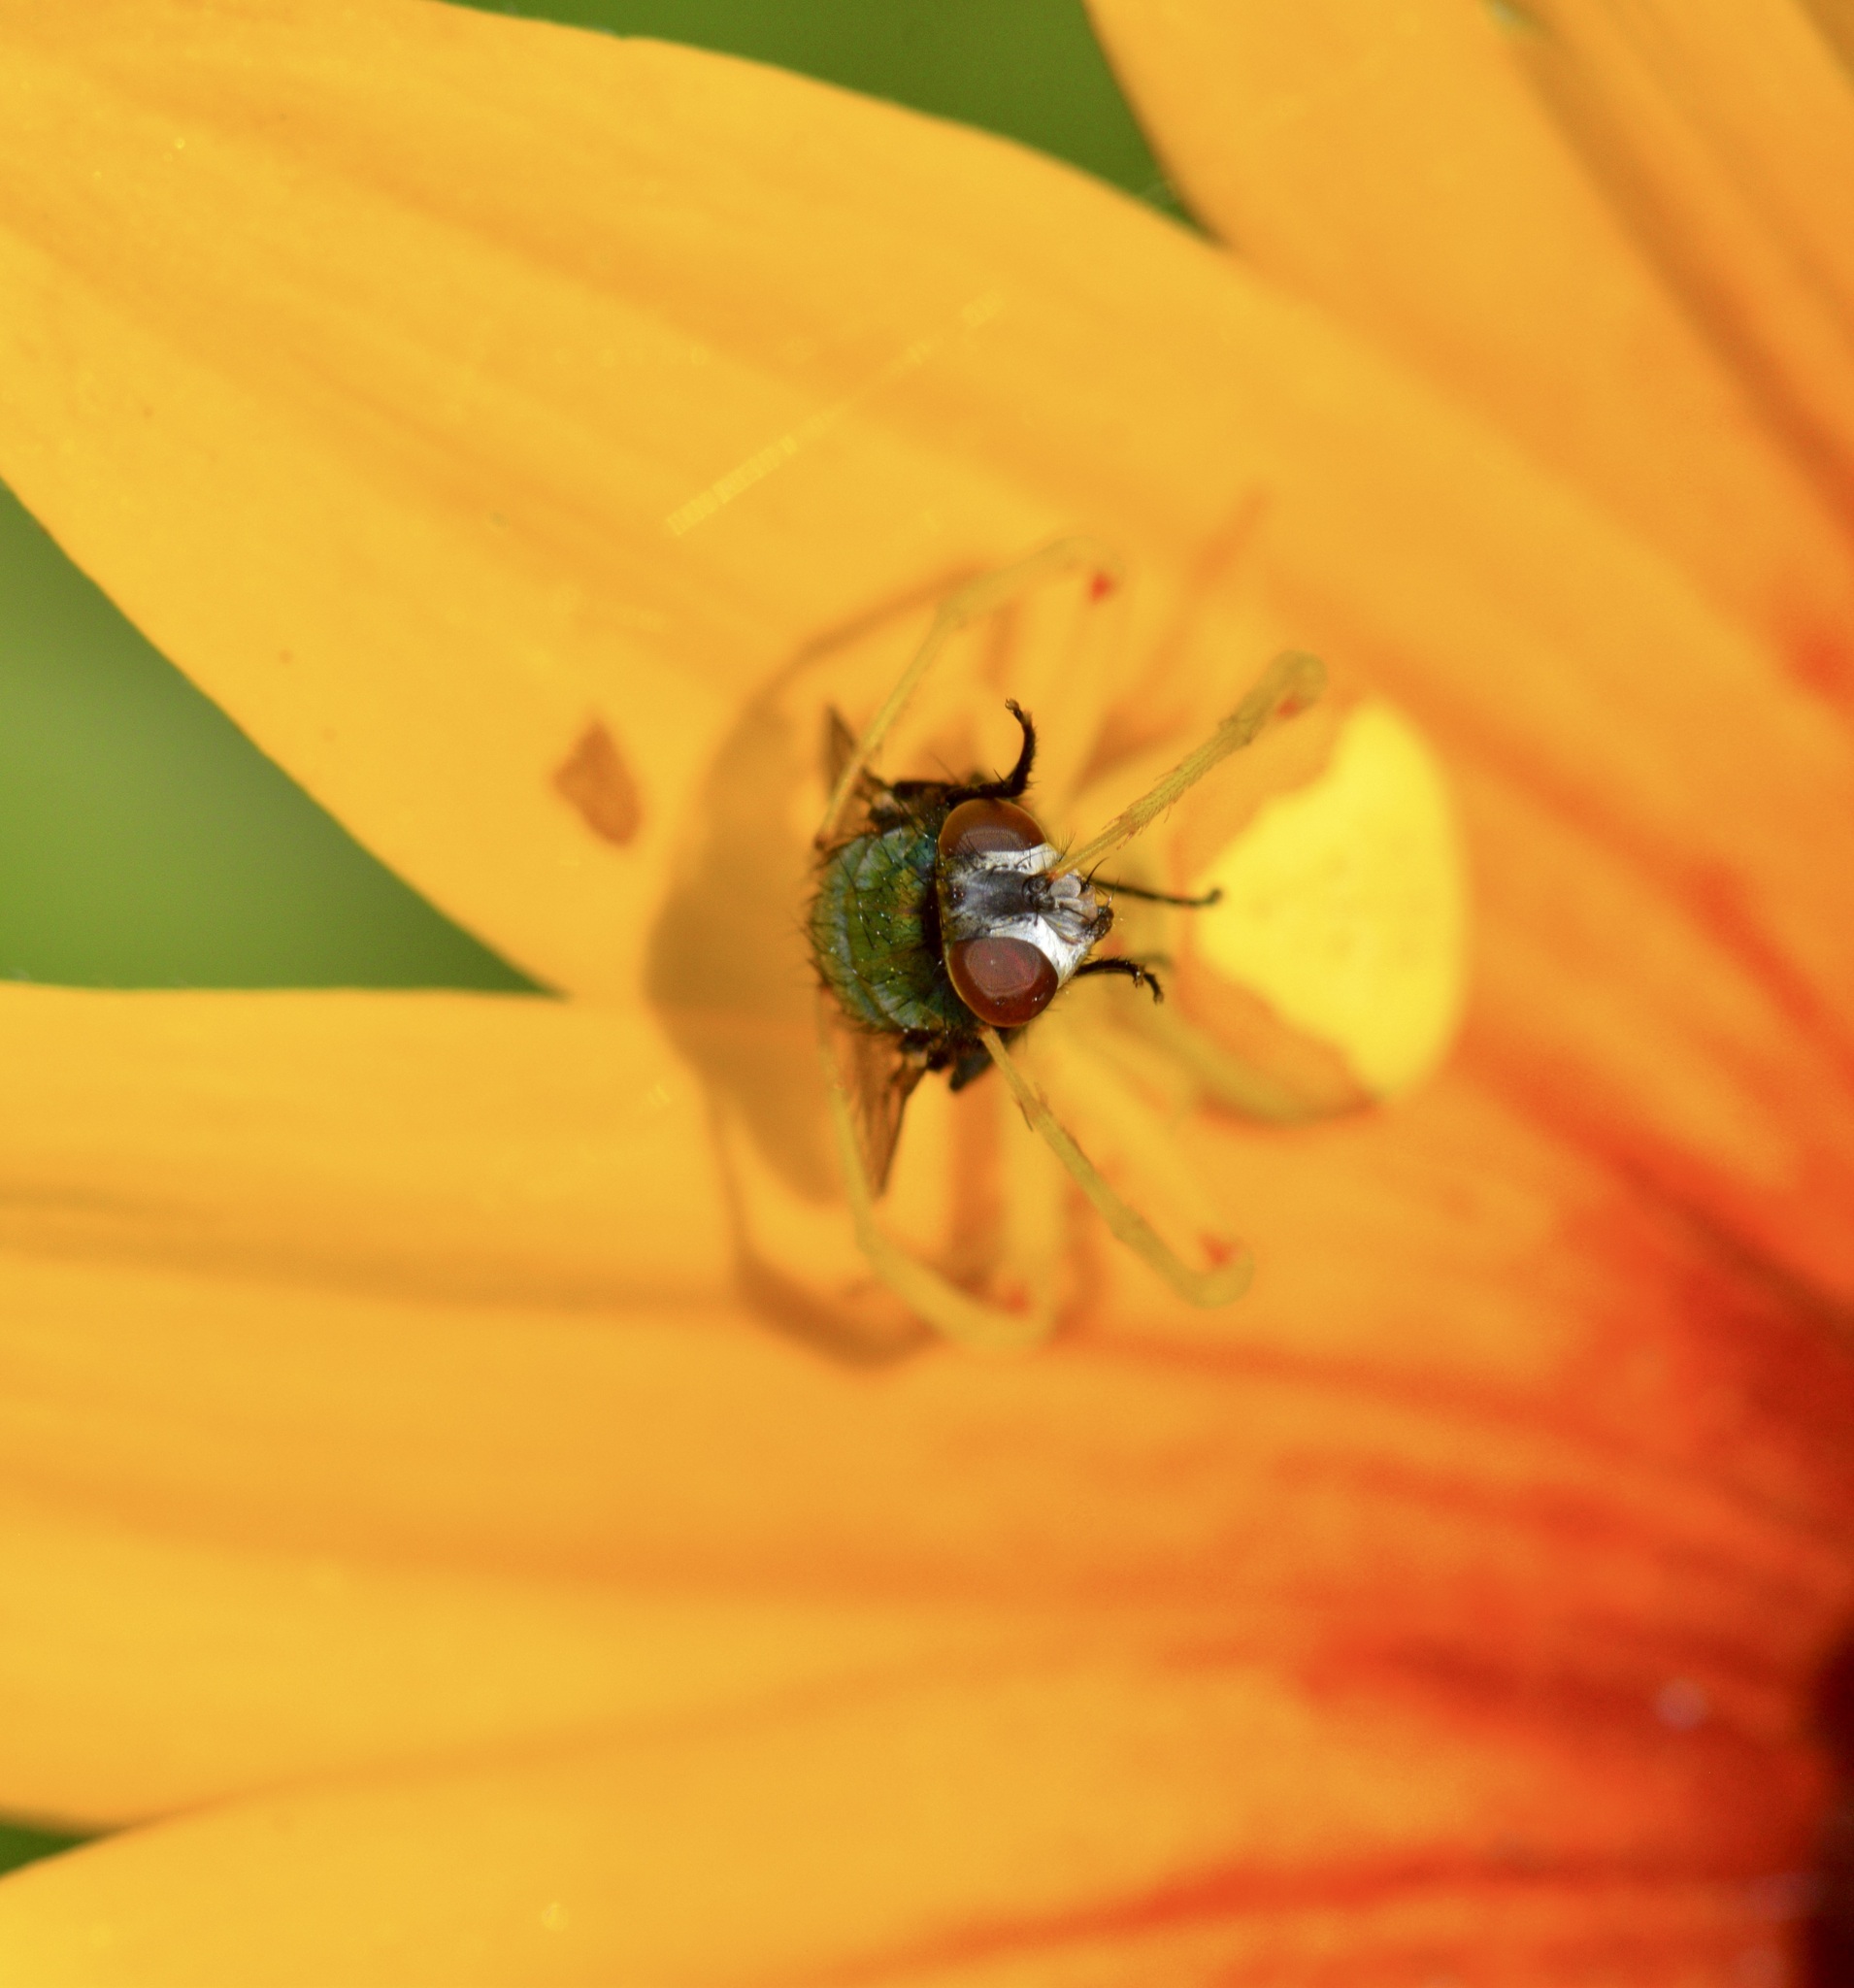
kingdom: Animalia
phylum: Arthropoda
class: Arachnida
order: Araneae
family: Thomisidae
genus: Misumena
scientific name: Misumena vatia
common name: Goldenrod crab spider
